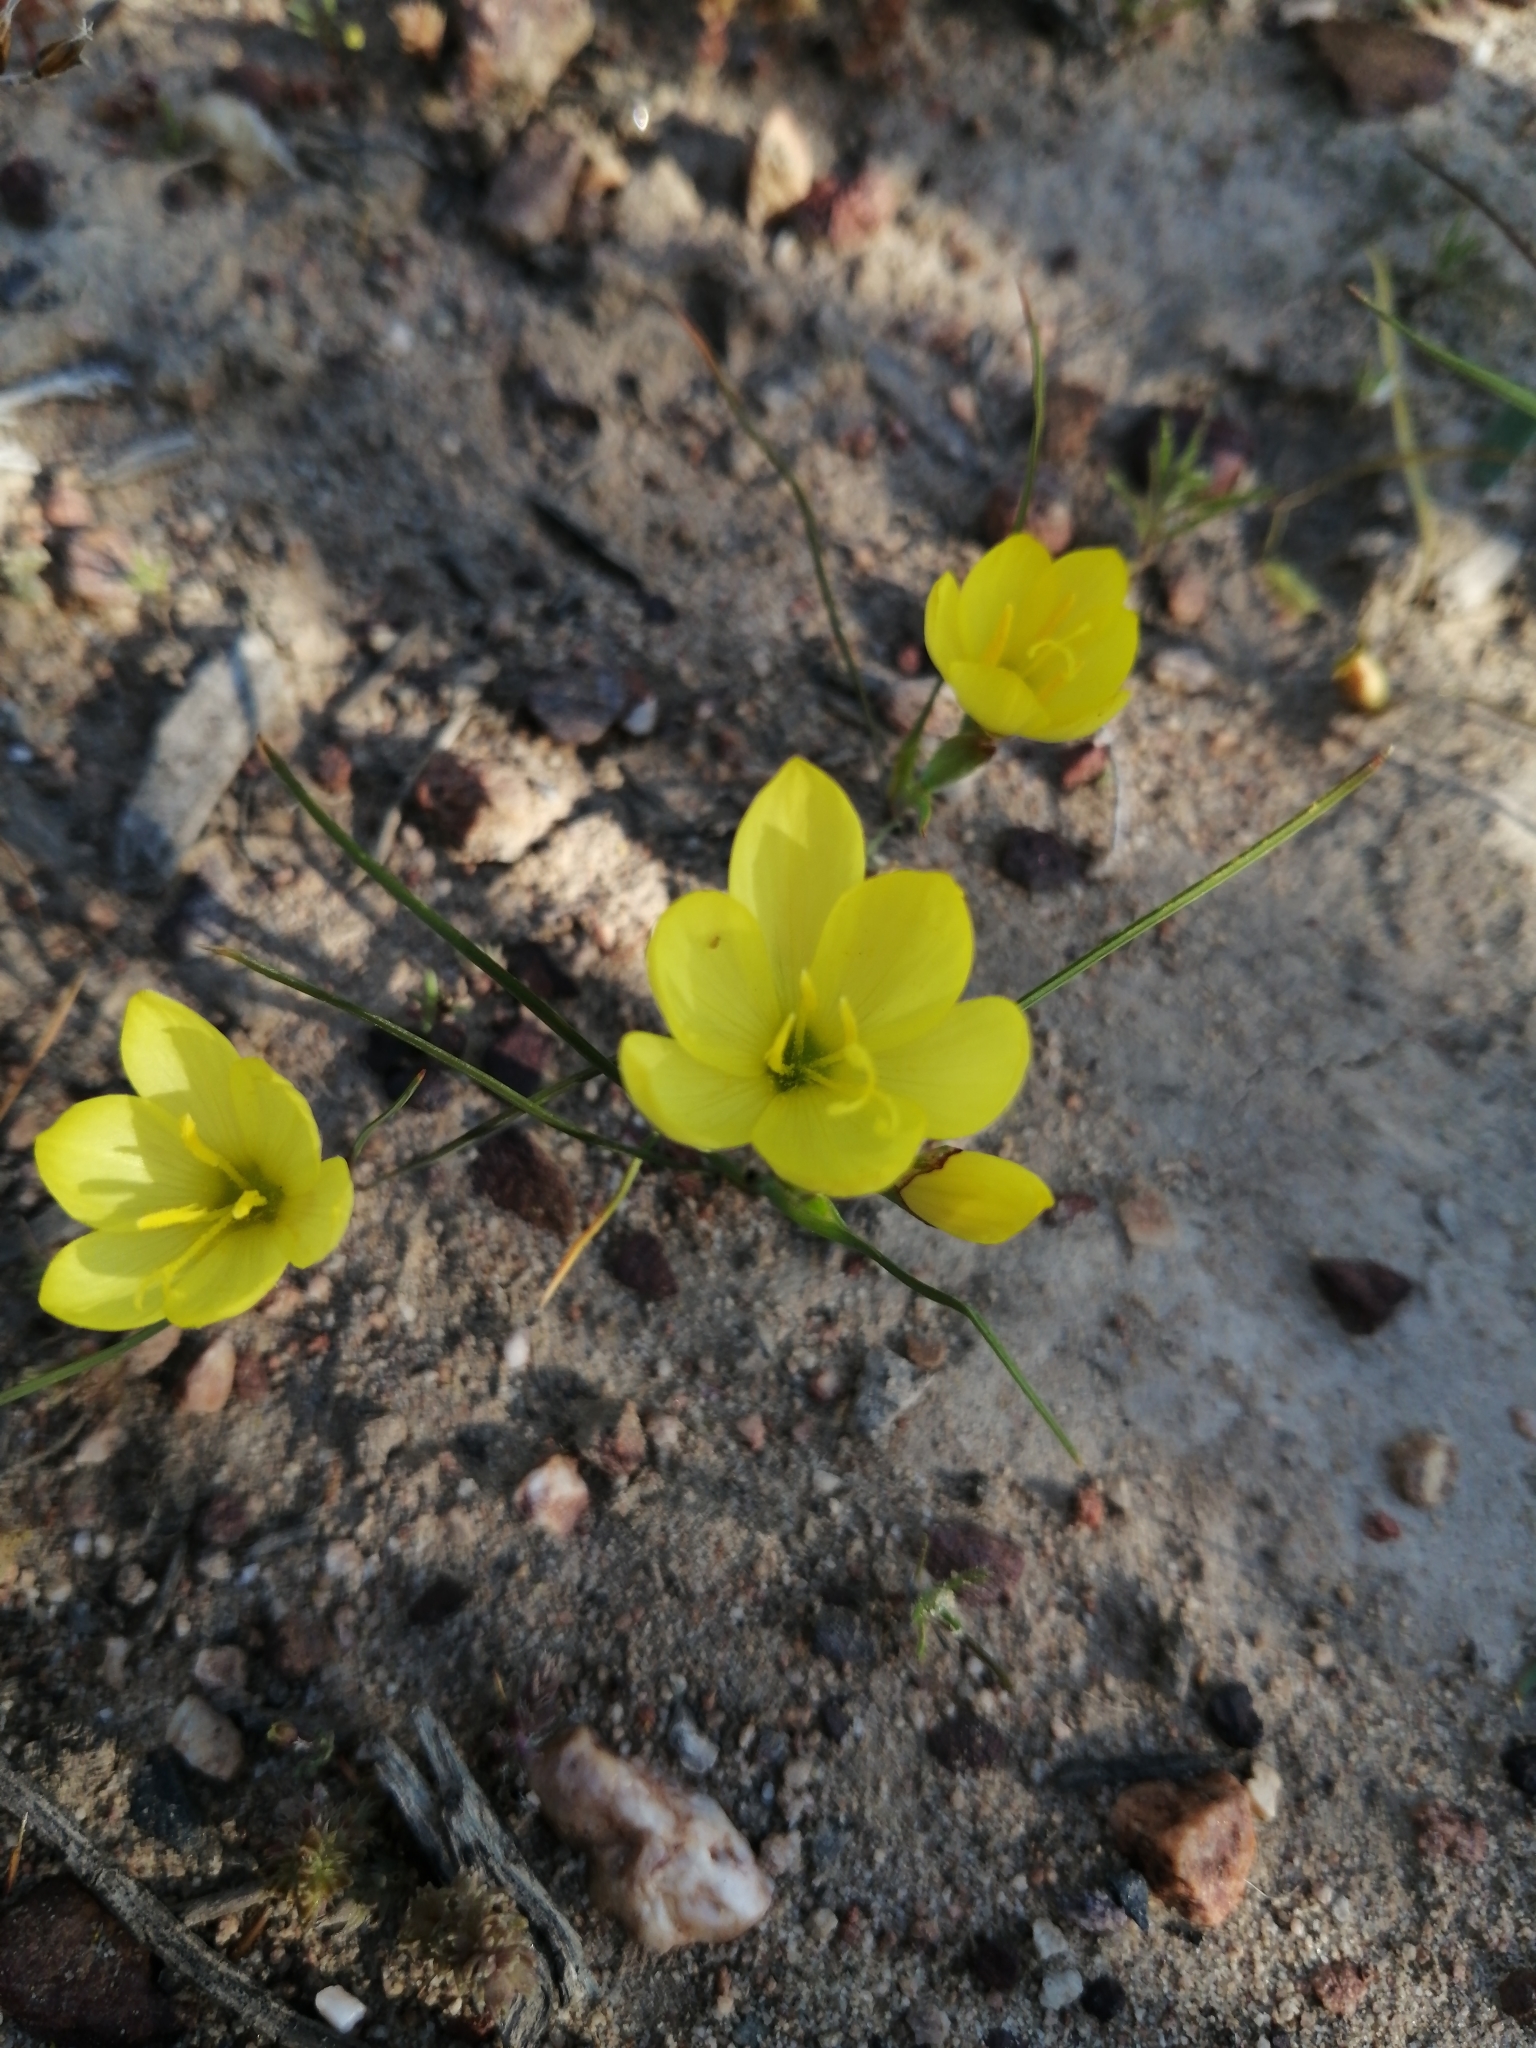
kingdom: Plantae
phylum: Tracheophyta
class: Liliopsida
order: Asparagales
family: Iridaceae
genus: Geissorhiza
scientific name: Geissorhiza ornithogaloides
